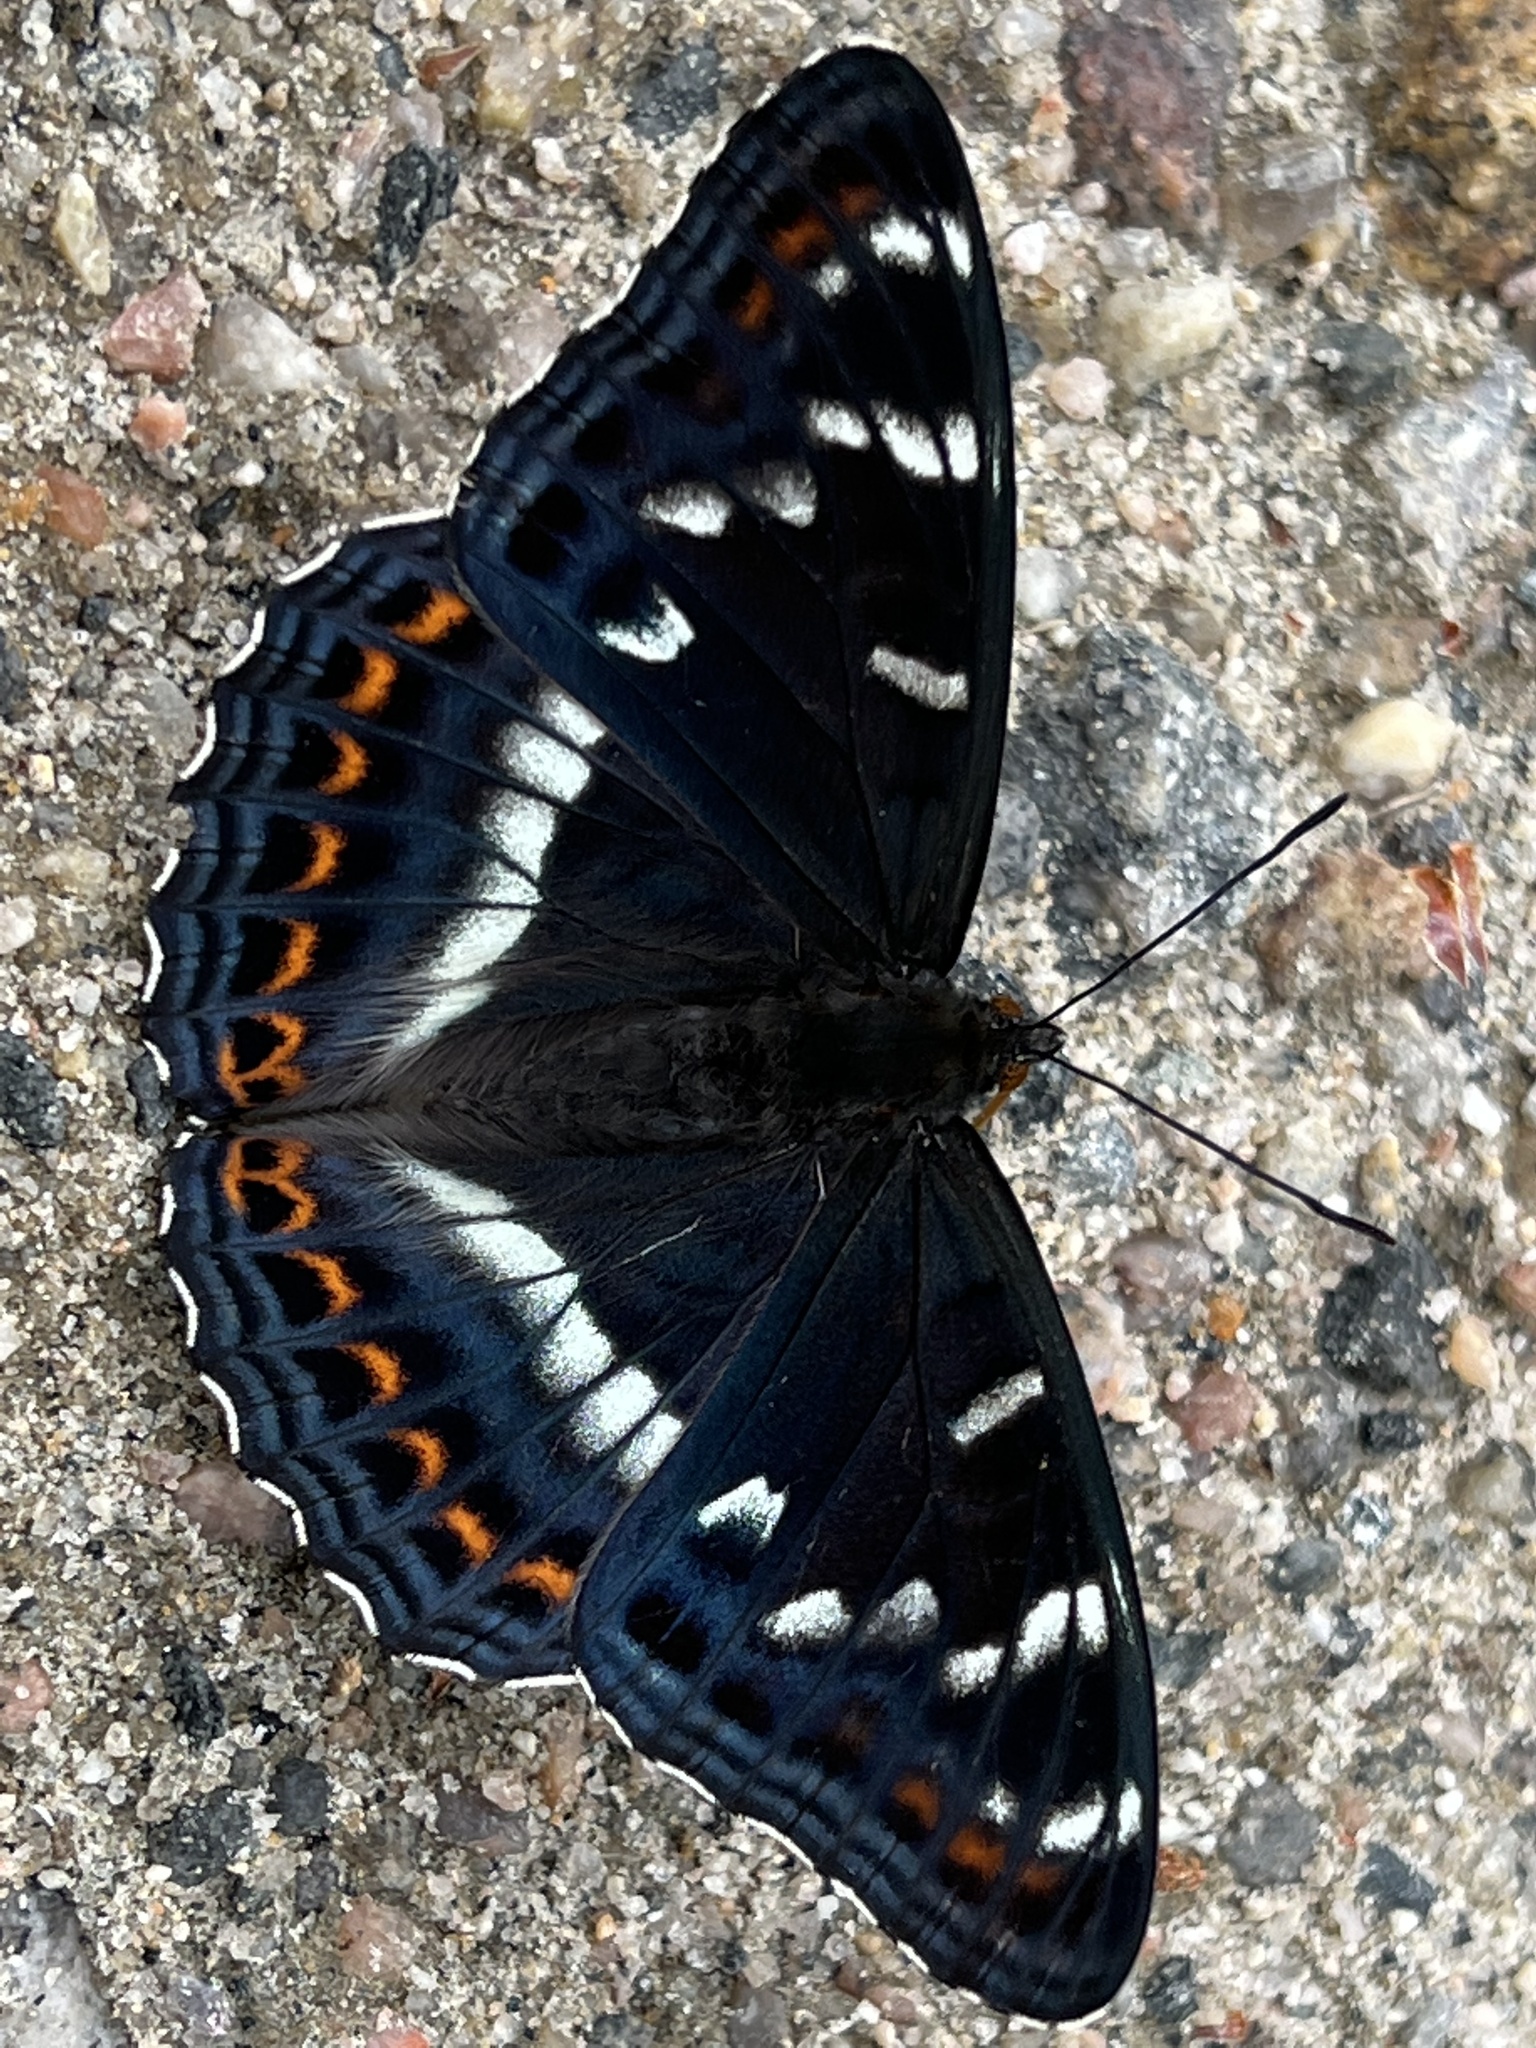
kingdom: Animalia
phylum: Arthropoda
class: Insecta
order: Lepidoptera
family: Nymphalidae
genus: Limenitis
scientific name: Limenitis populi
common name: Poplar admiral
